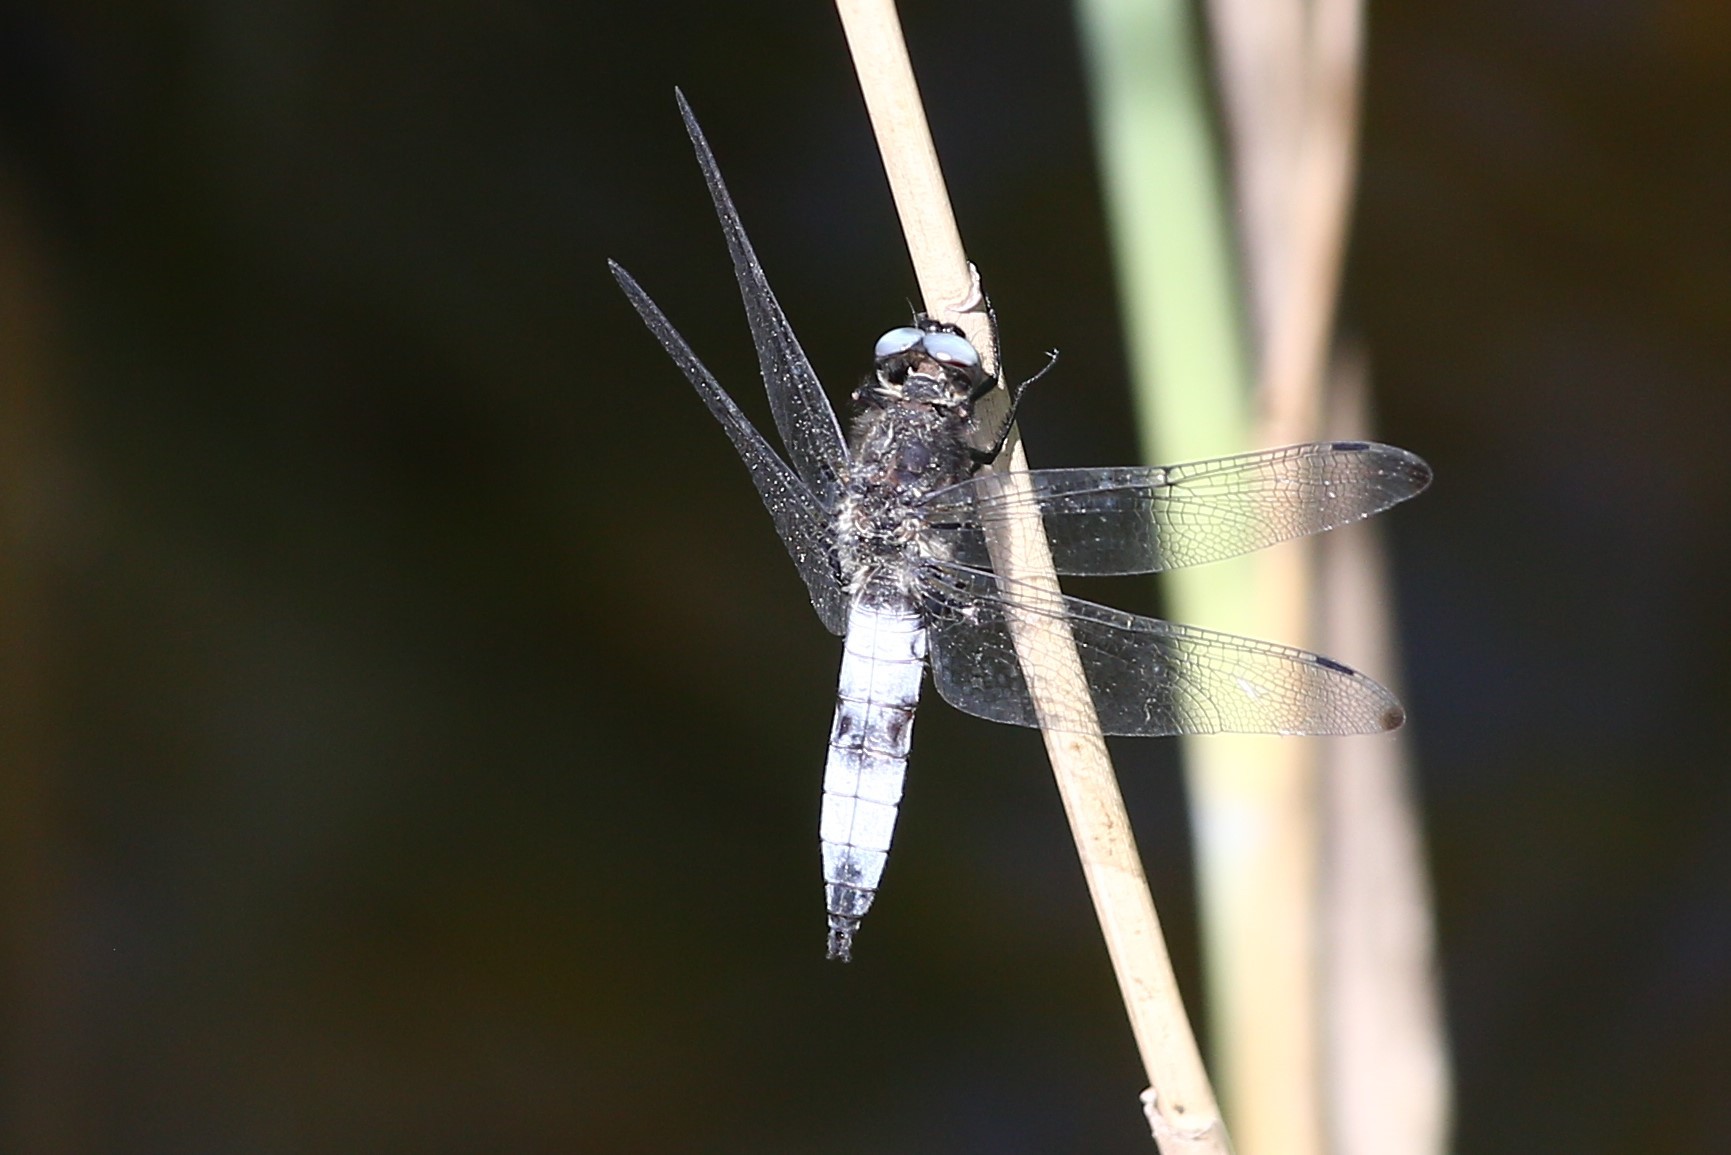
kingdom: Animalia
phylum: Arthropoda
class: Insecta
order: Odonata
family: Libellulidae
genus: Libellula
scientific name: Libellula fulva
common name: Blue chaser
